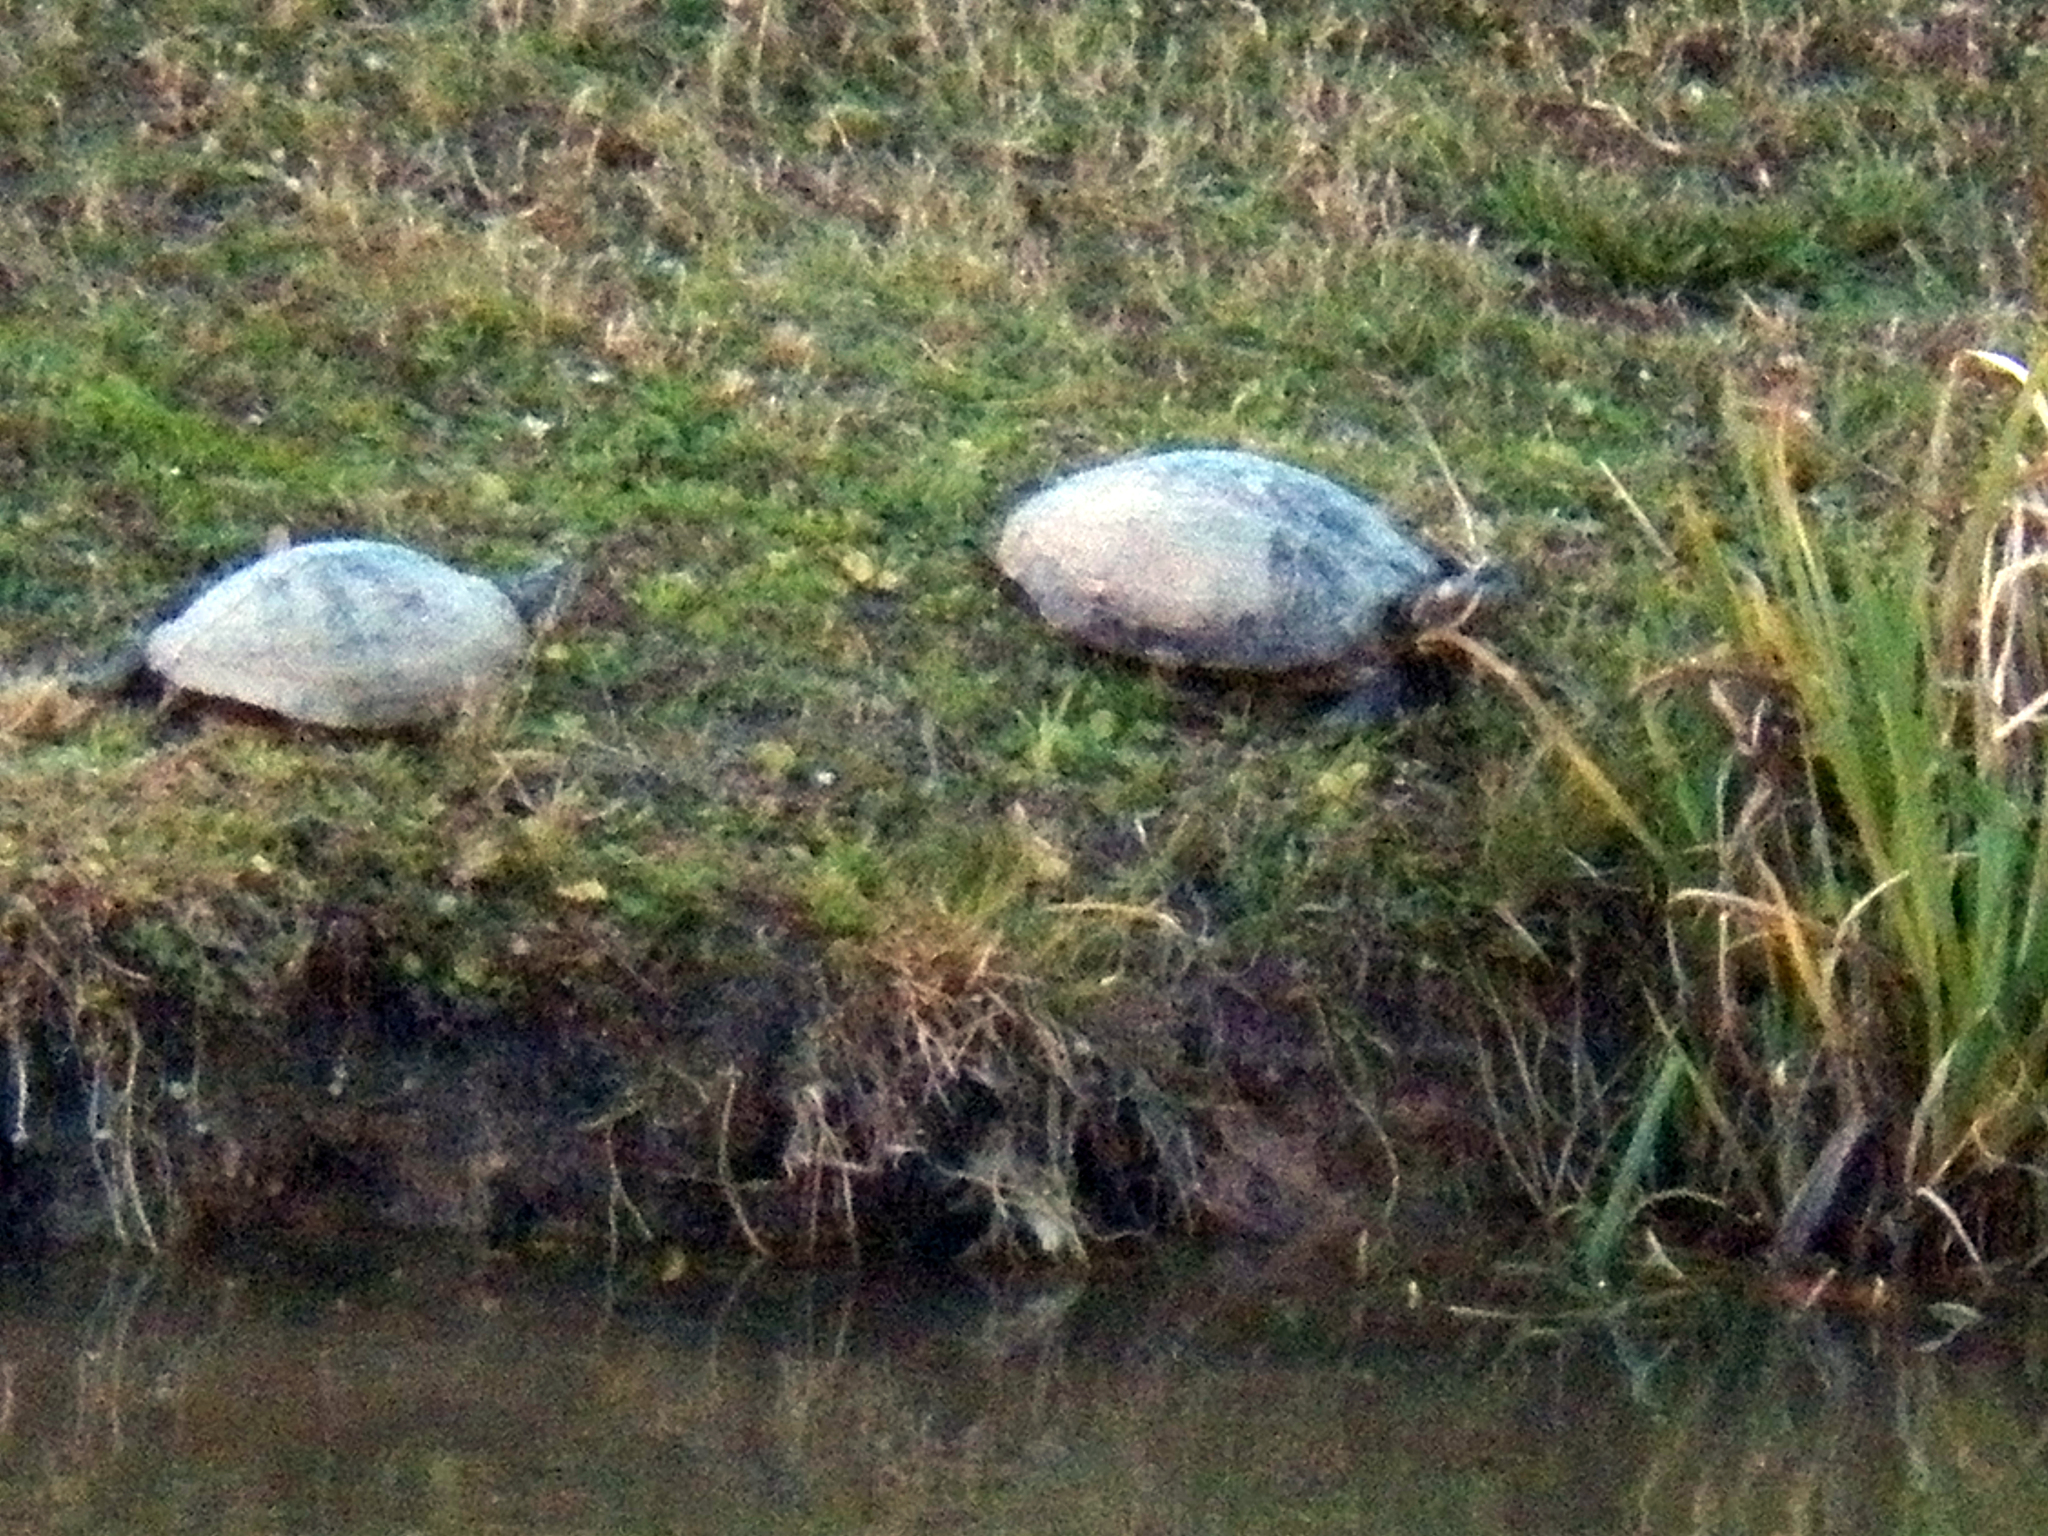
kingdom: Animalia
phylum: Chordata
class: Testudines
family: Emydidae
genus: Trachemys
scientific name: Trachemys scripta
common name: Slider
